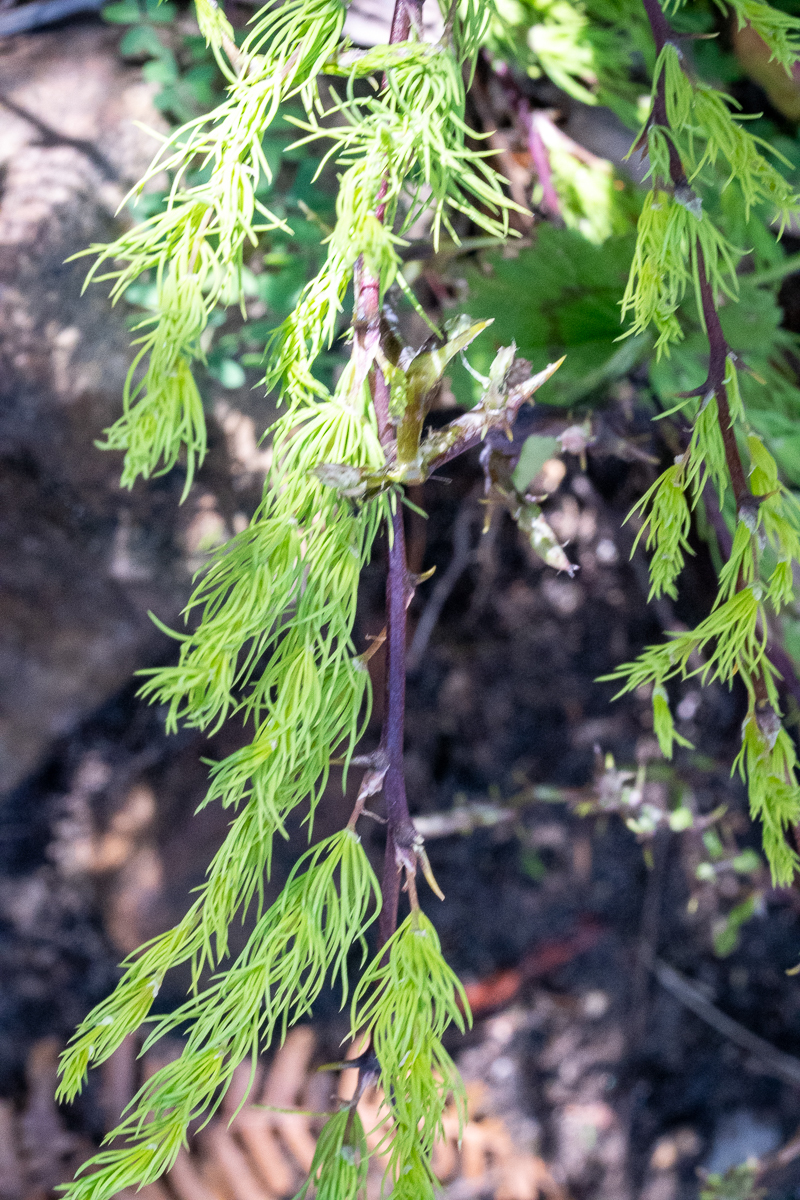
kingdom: Plantae
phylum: Tracheophyta
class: Liliopsida
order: Asparagales
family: Asparagaceae
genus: Asparagus
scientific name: Asparagus rubicundus
